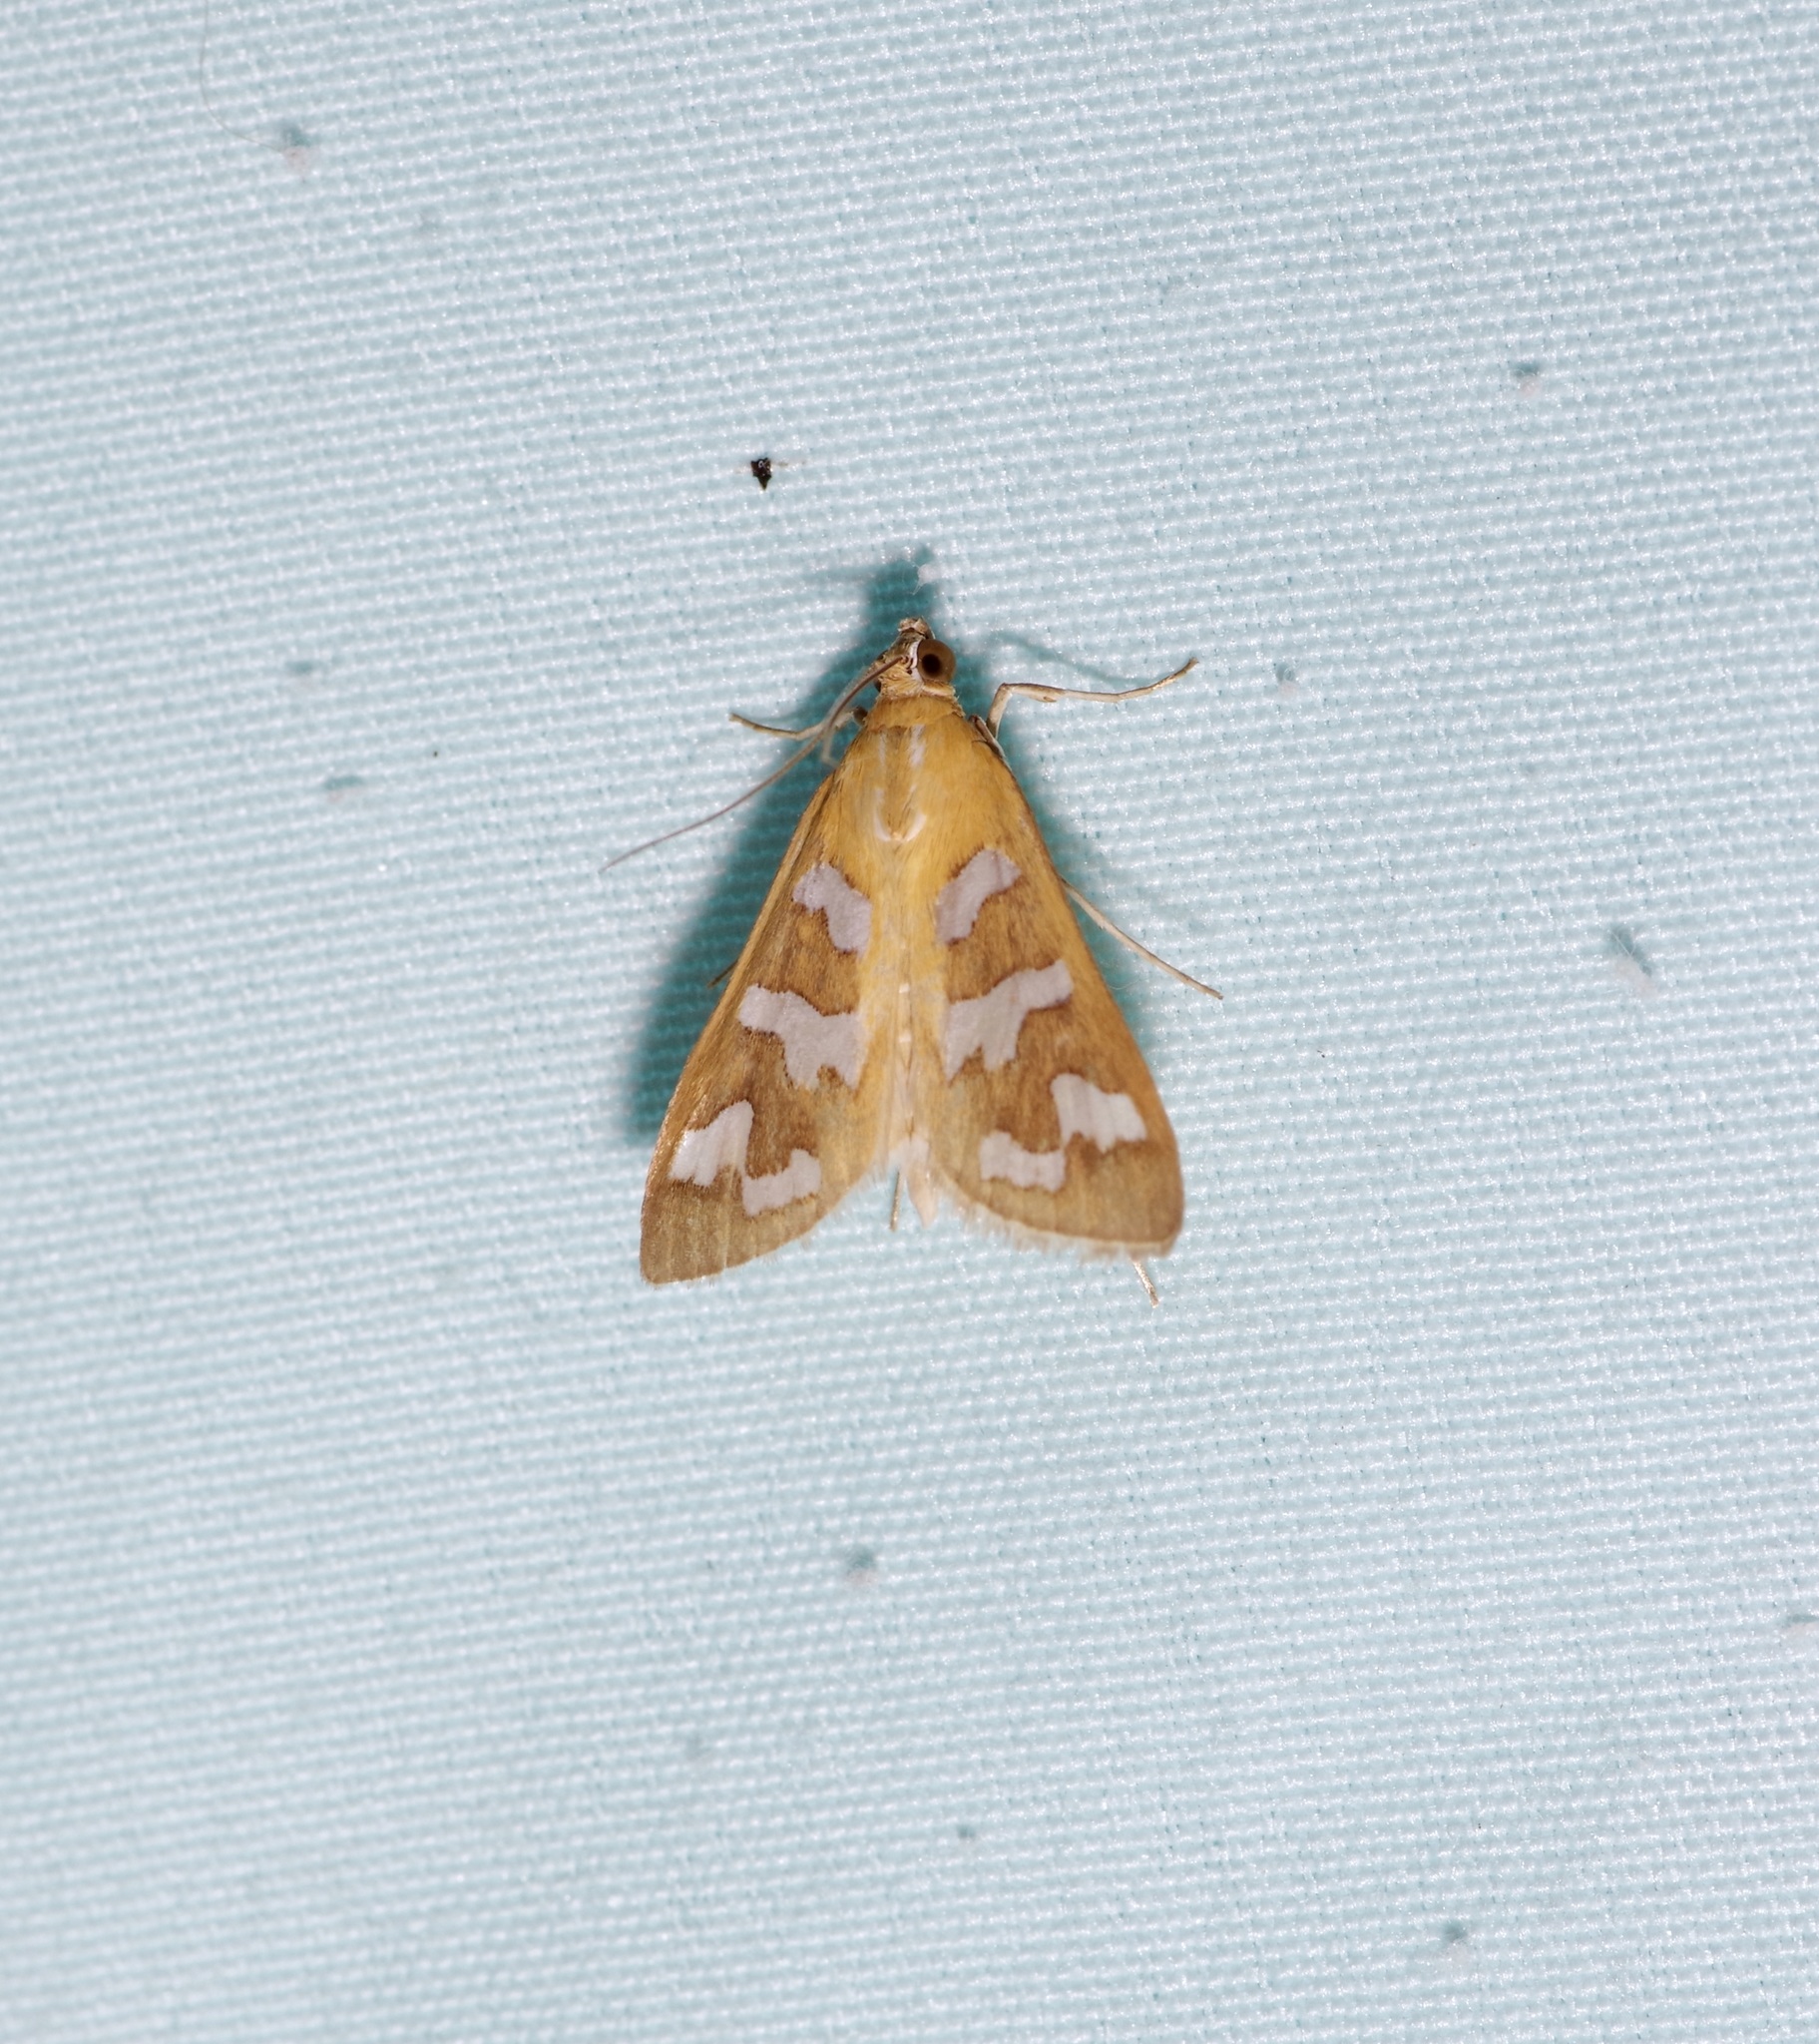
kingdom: Animalia
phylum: Arthropoda
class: Insecta
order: Lepidoptera
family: Crambidae
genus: Diastictis
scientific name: Diastictis fracturalis
